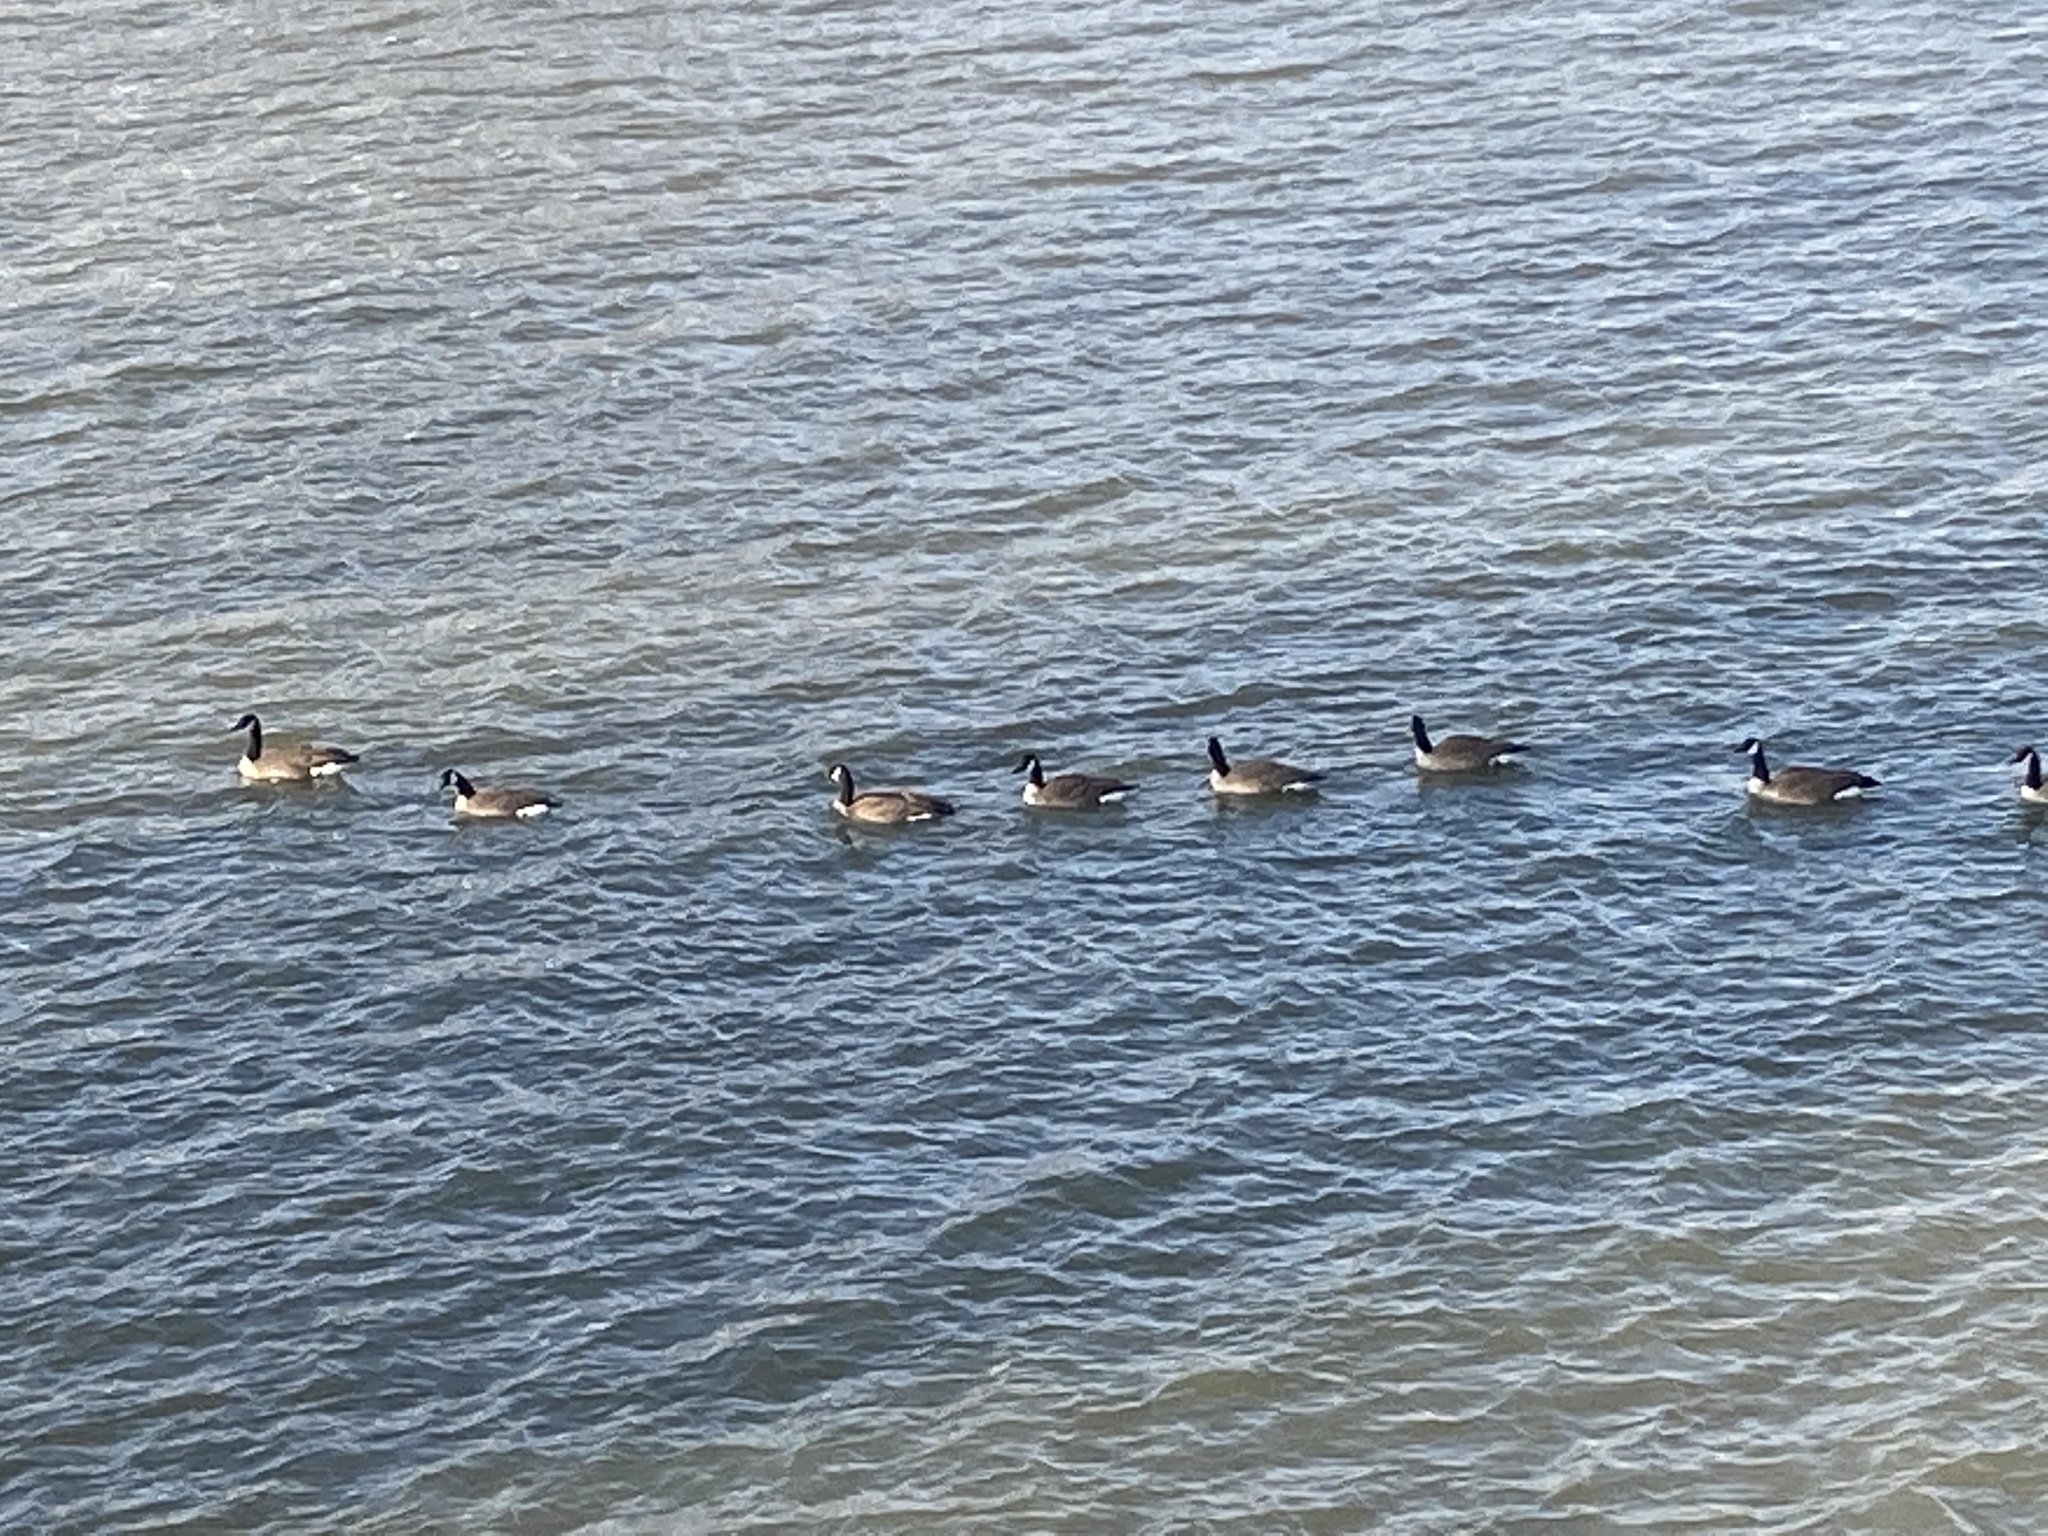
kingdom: Animalia
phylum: Chordata
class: Aves
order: Anseriformes
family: Anatidae
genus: Branta
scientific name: Branta canadensis
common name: Canada goose
